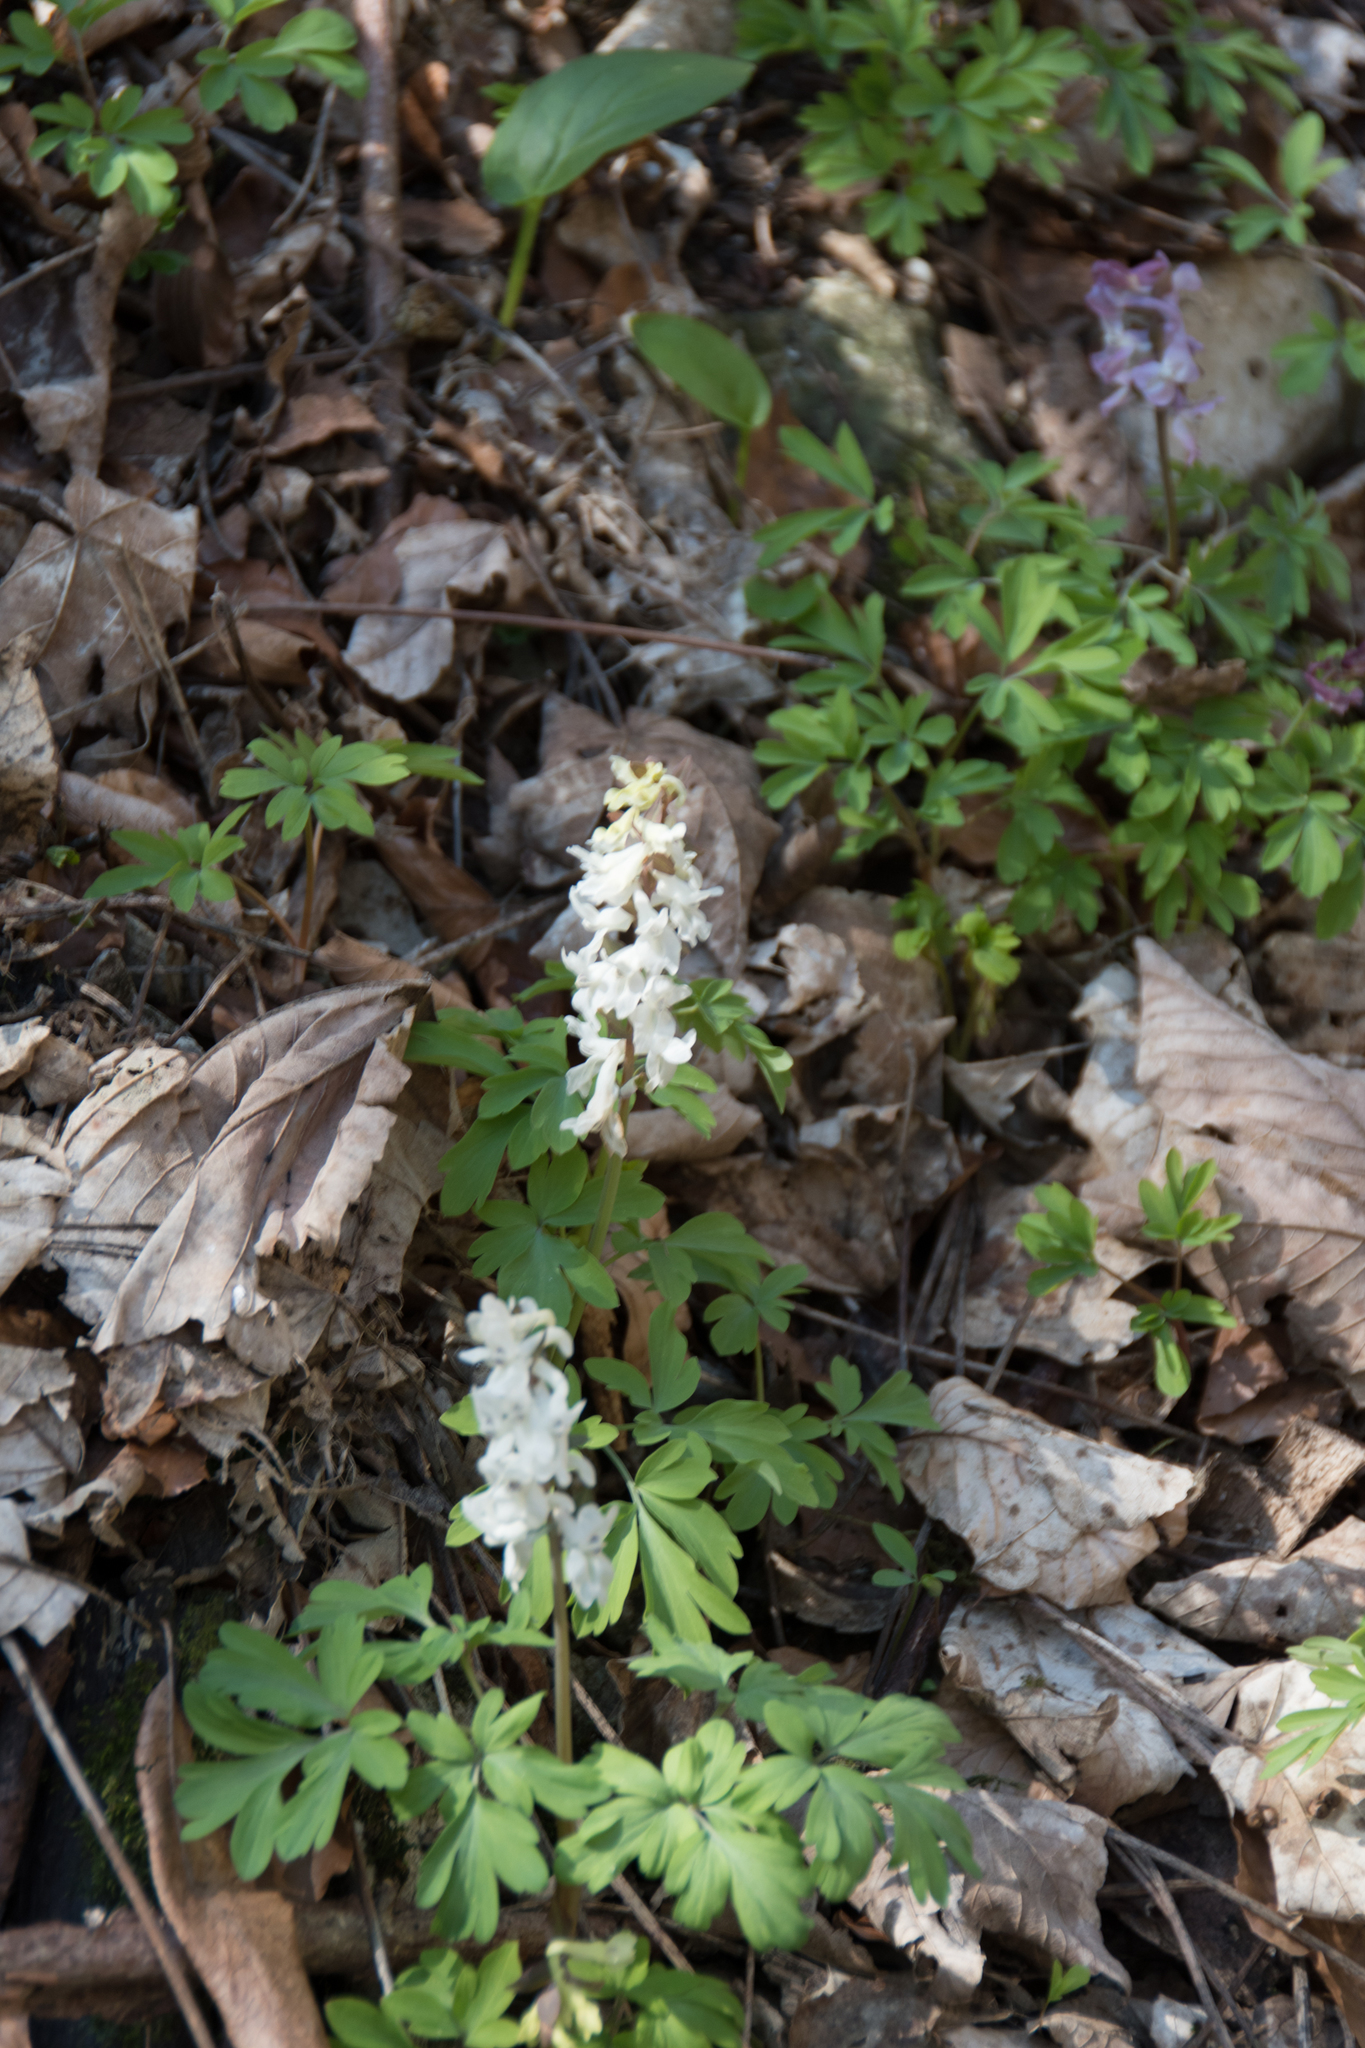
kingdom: Plantae
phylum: Tracheophyta
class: Magnoliopsida
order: Ranunculales
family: Papaveraceae
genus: Corydalis
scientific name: Corydalis cava
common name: Hollowroot
